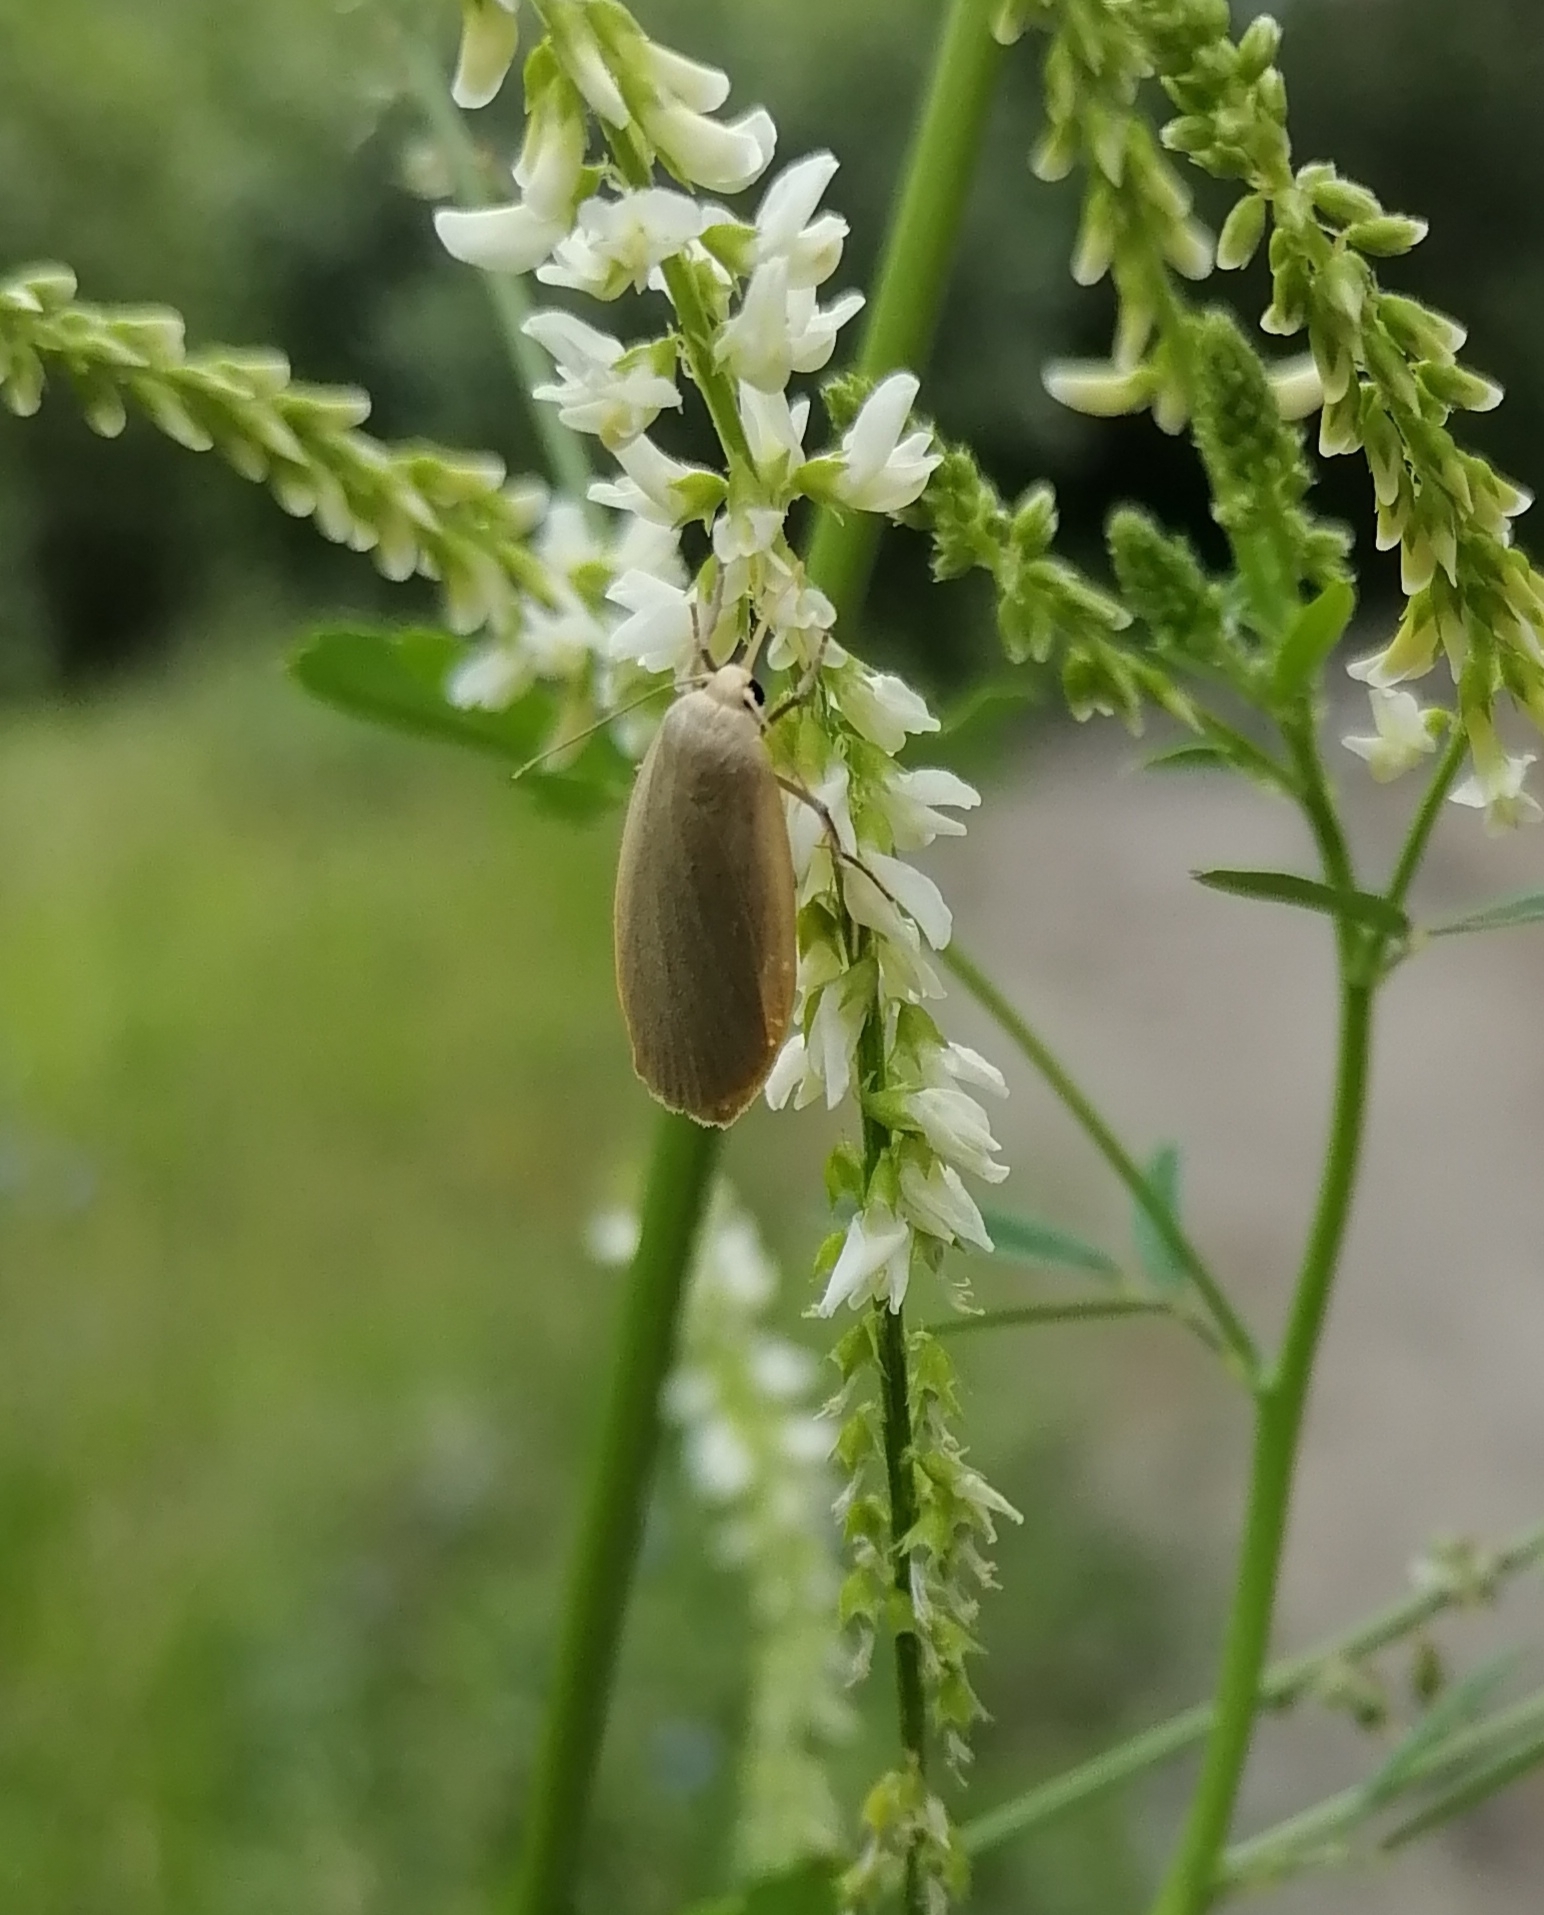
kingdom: Animalia
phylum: Arthropoda
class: Insecta
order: Lepidoptera
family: Erebidae
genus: Collita
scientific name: Collita griseola
